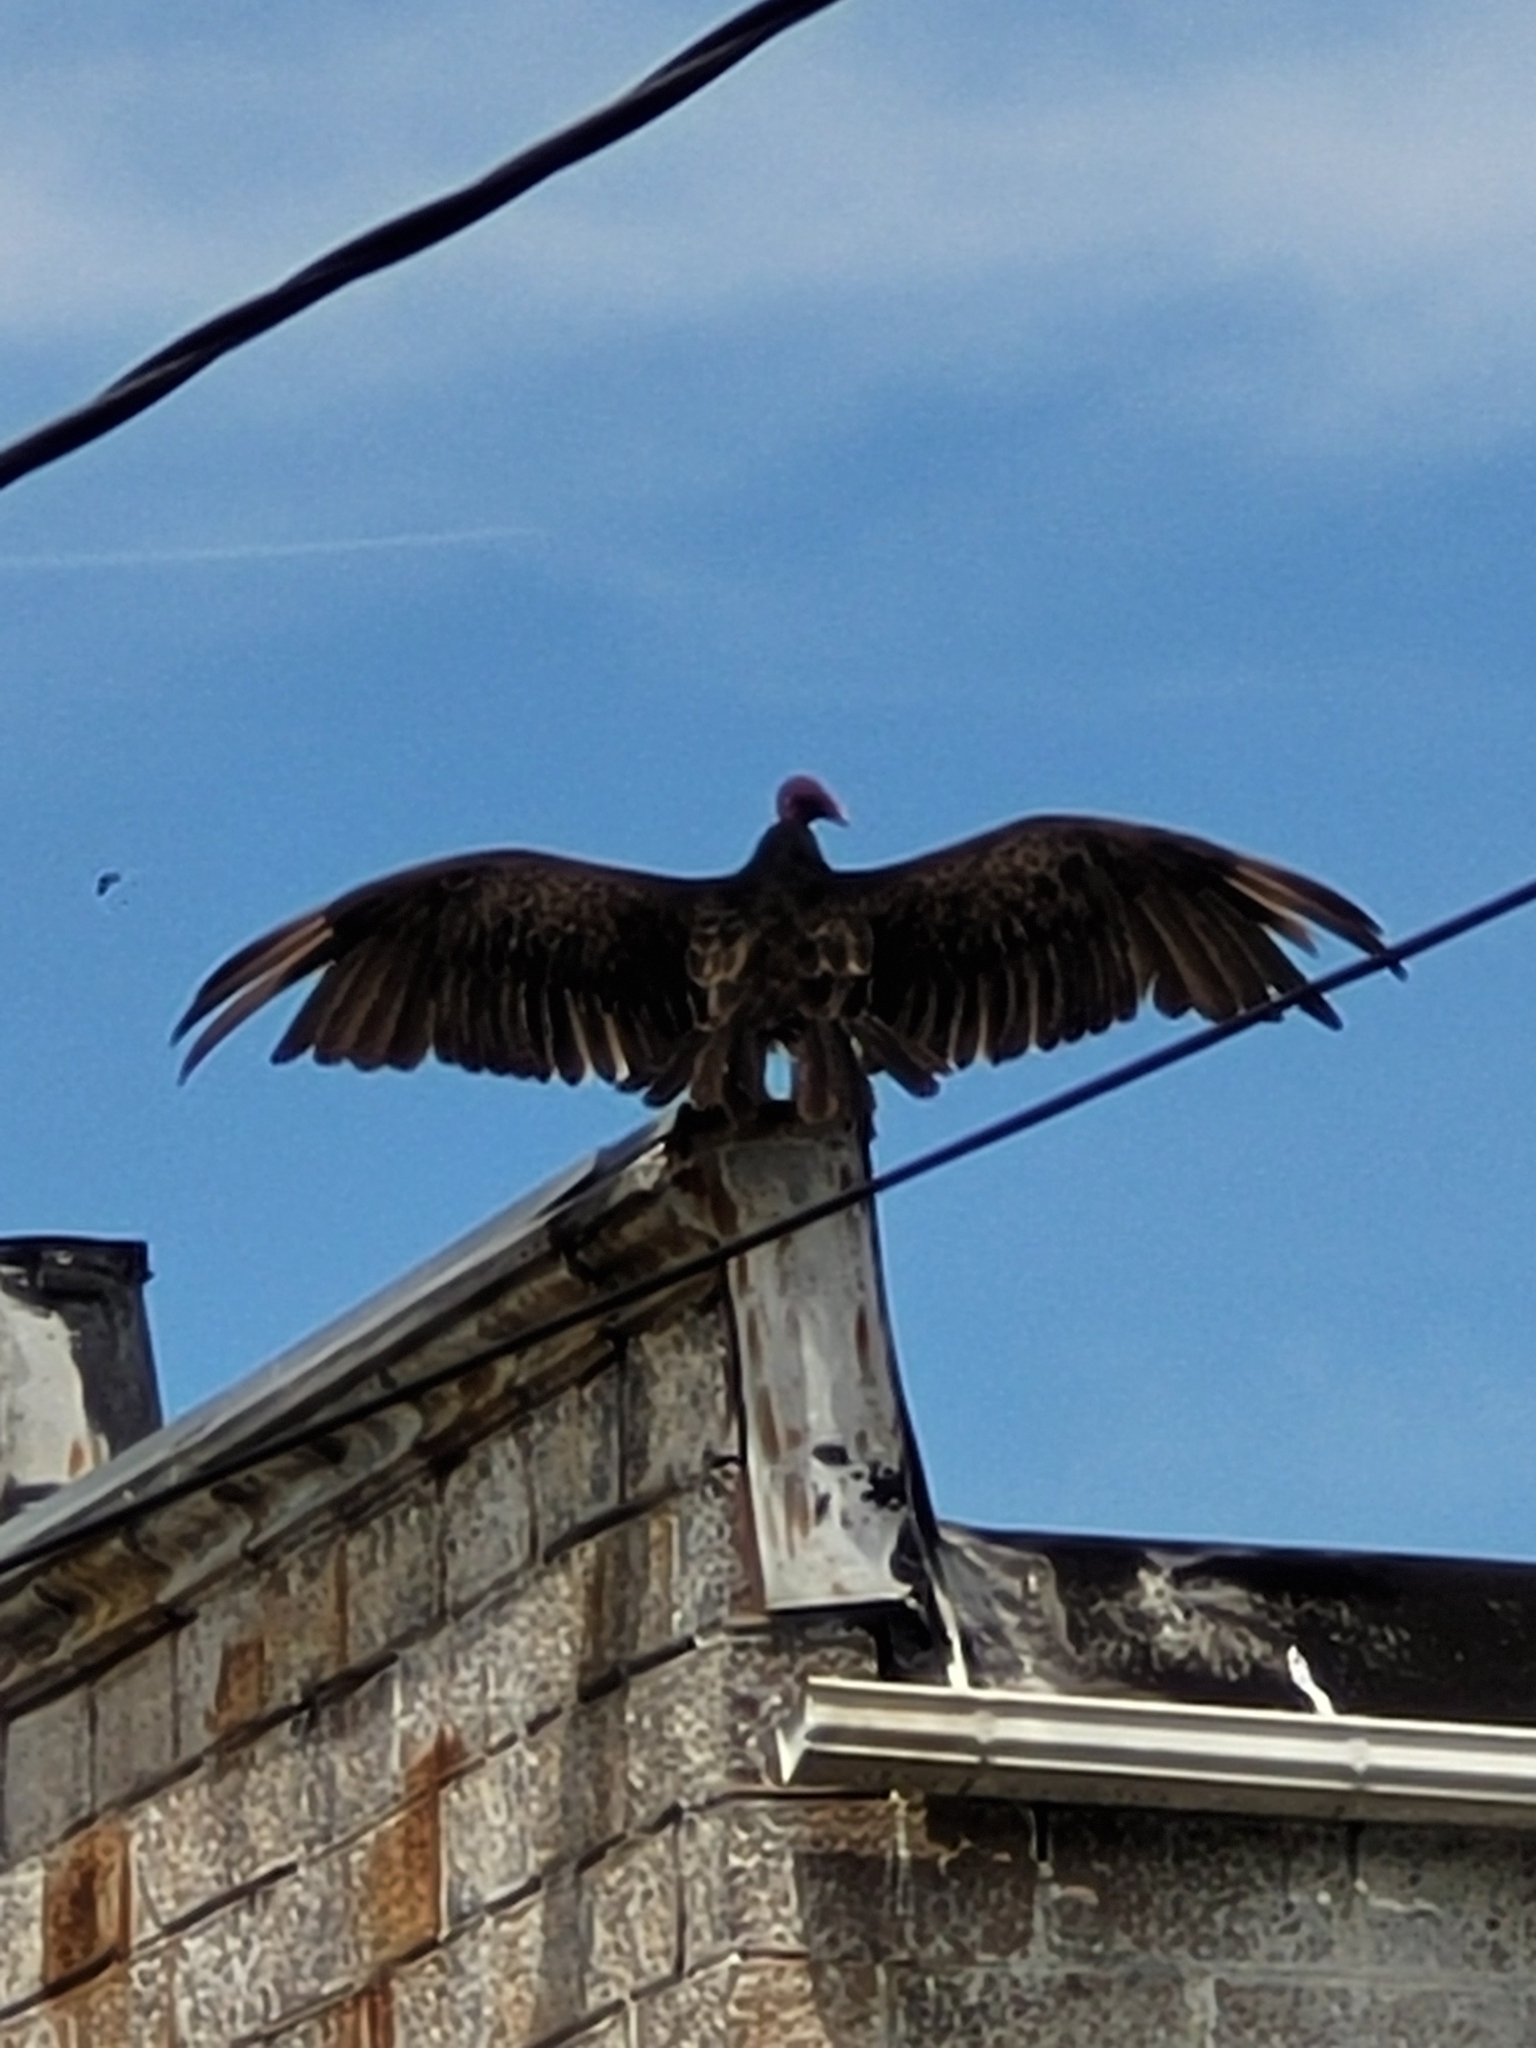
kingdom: Animalia
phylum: Chordata
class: Aves
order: Accipitriformes
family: Cathartidae
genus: Cathartes
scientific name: Cathartes aura
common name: Turkey vulture
